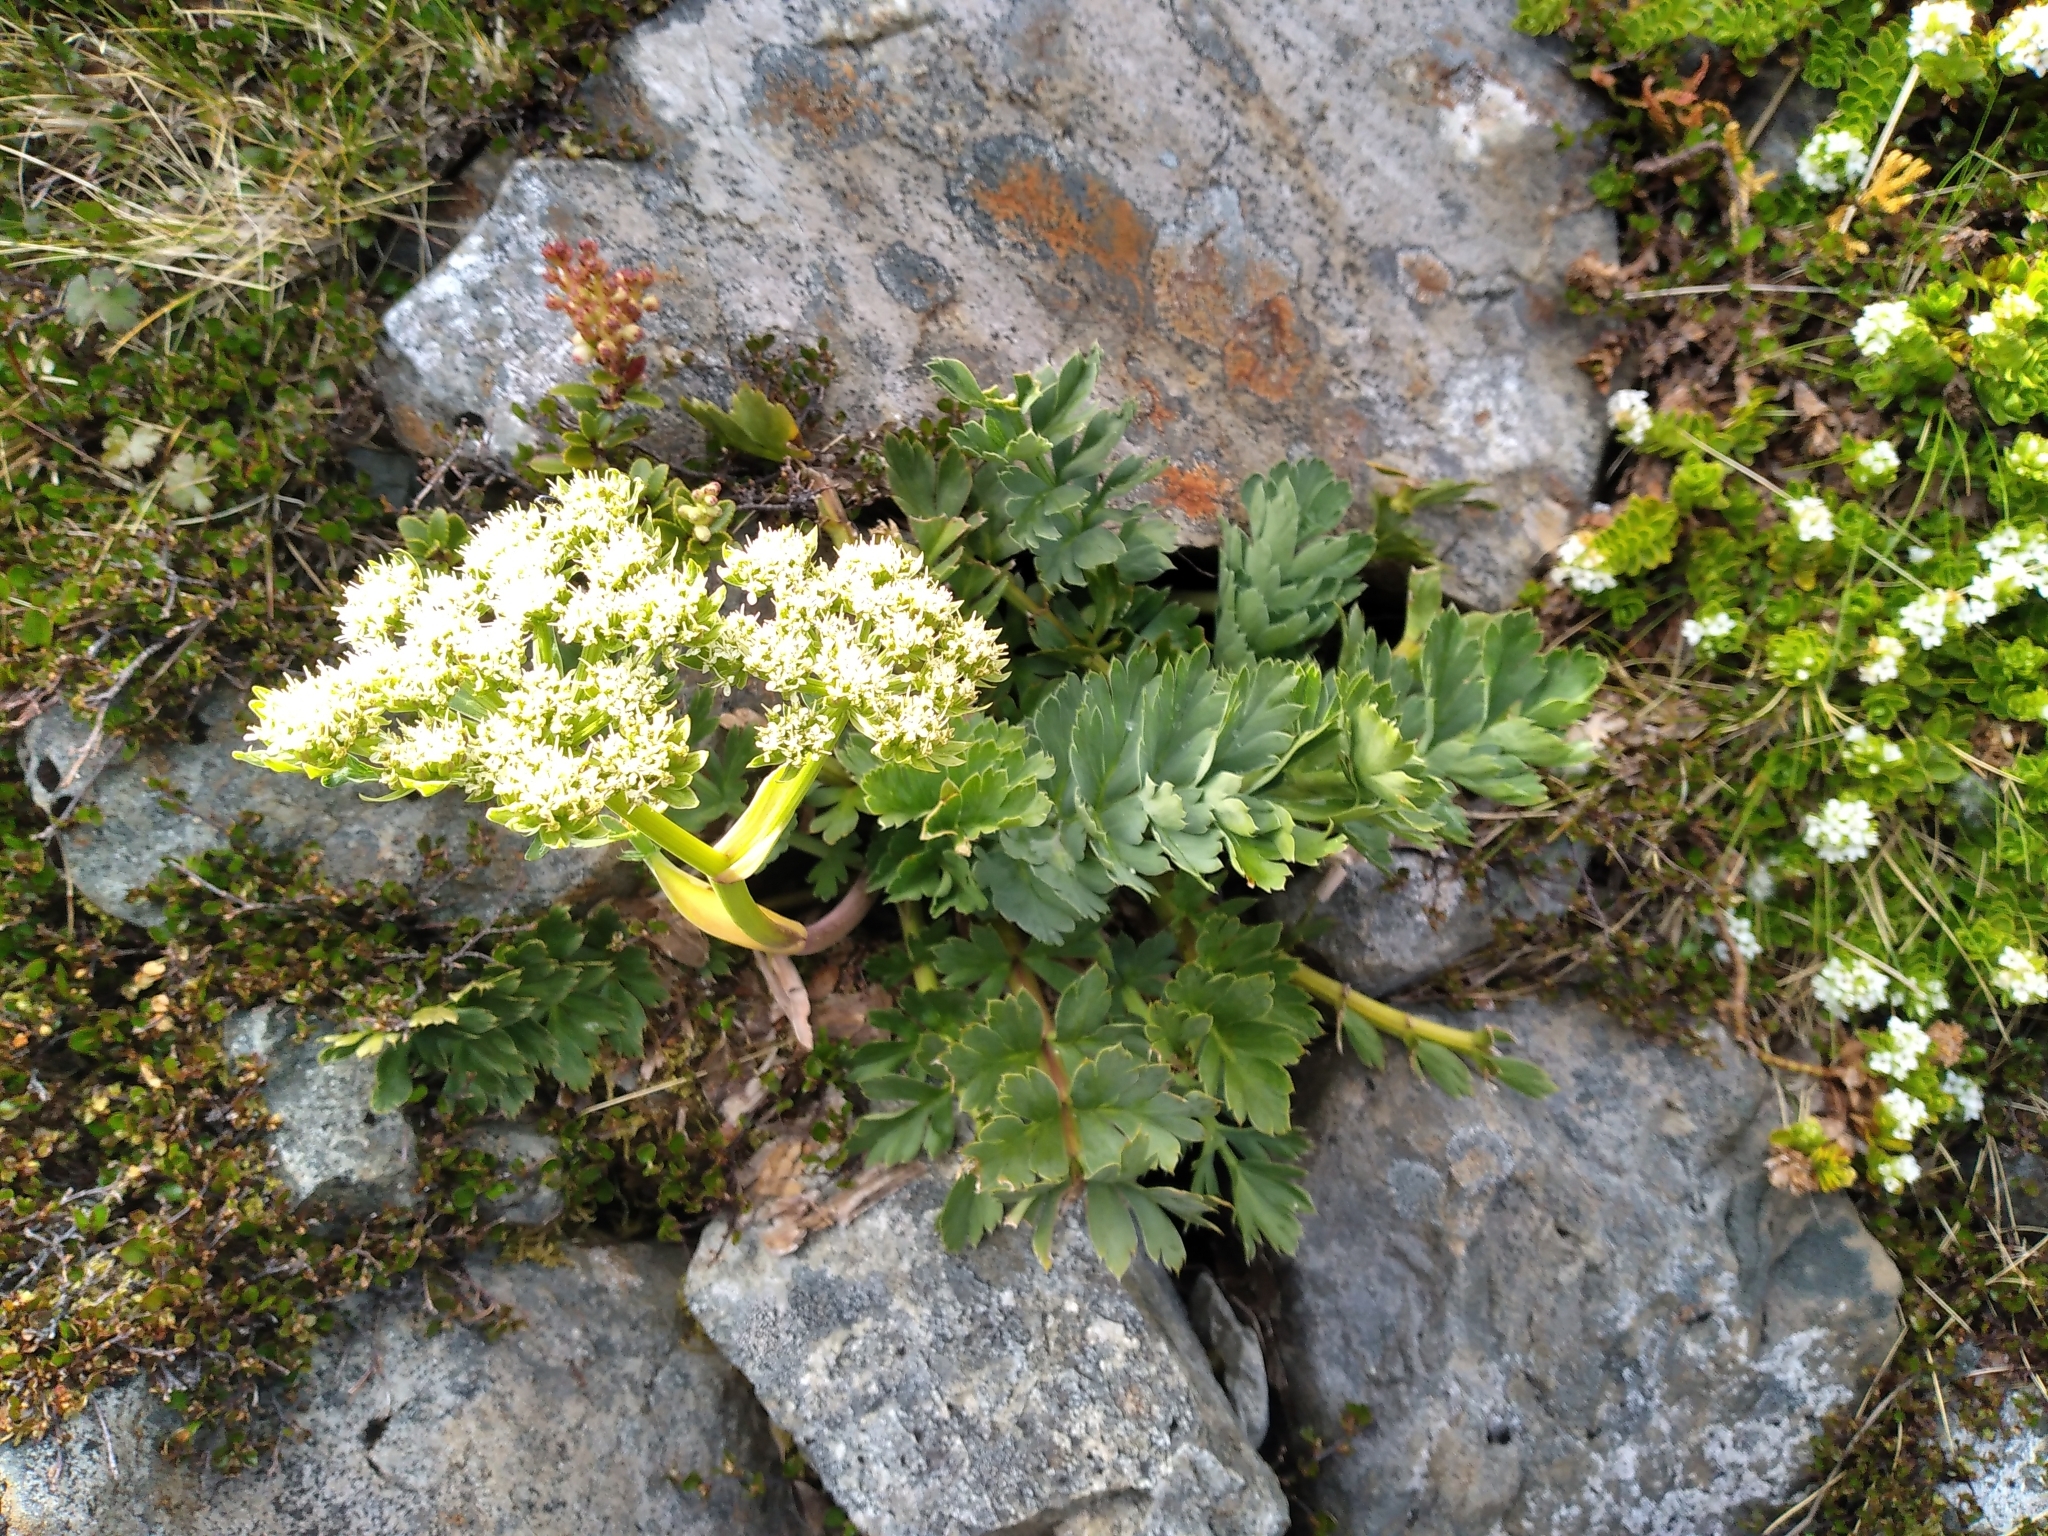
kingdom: Plantae
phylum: Tracheophyta
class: Magnoliopsida
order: Apiales
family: Apiaceae
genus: Anisotome
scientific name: Anisotome pilifera
